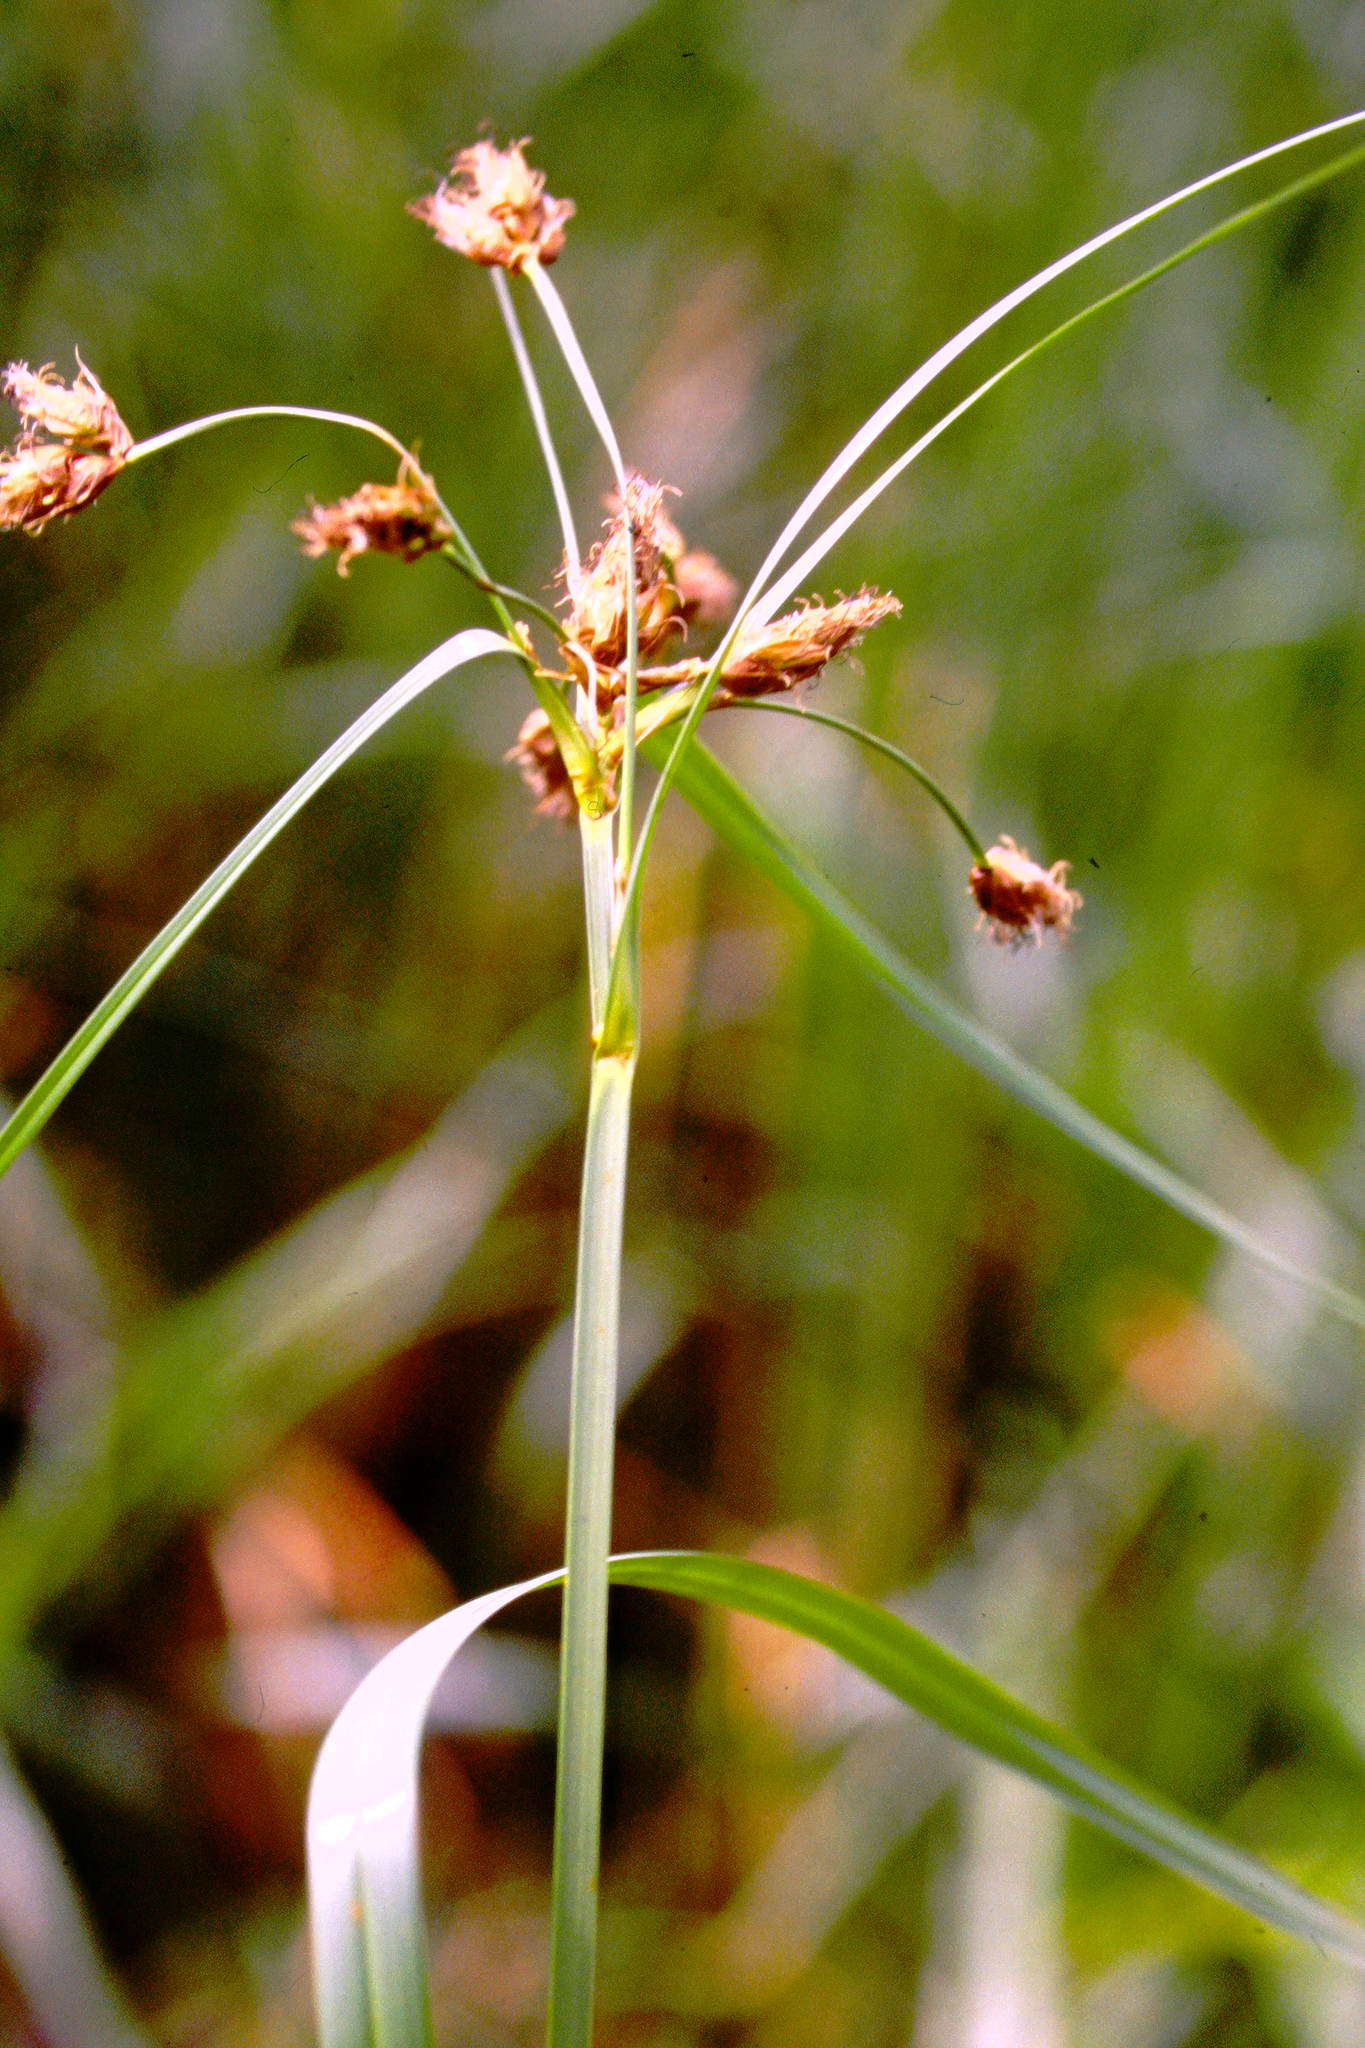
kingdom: Plantae
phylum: Tracheophyta
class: Liliopsida
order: Poales
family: Cyperaceae
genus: Bolboschoenus
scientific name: Bolboschoenus fluviatilis
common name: River bulrush
